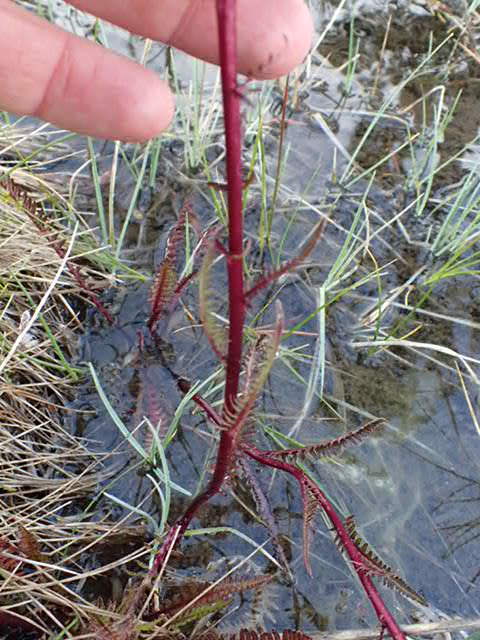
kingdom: Plantae
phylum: Tracheophyta
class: Magnoliopsida
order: Lamiales
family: Orobanchaceae
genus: Pedicularis
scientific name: Pedicularis groenlandica
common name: Elephant's-head
